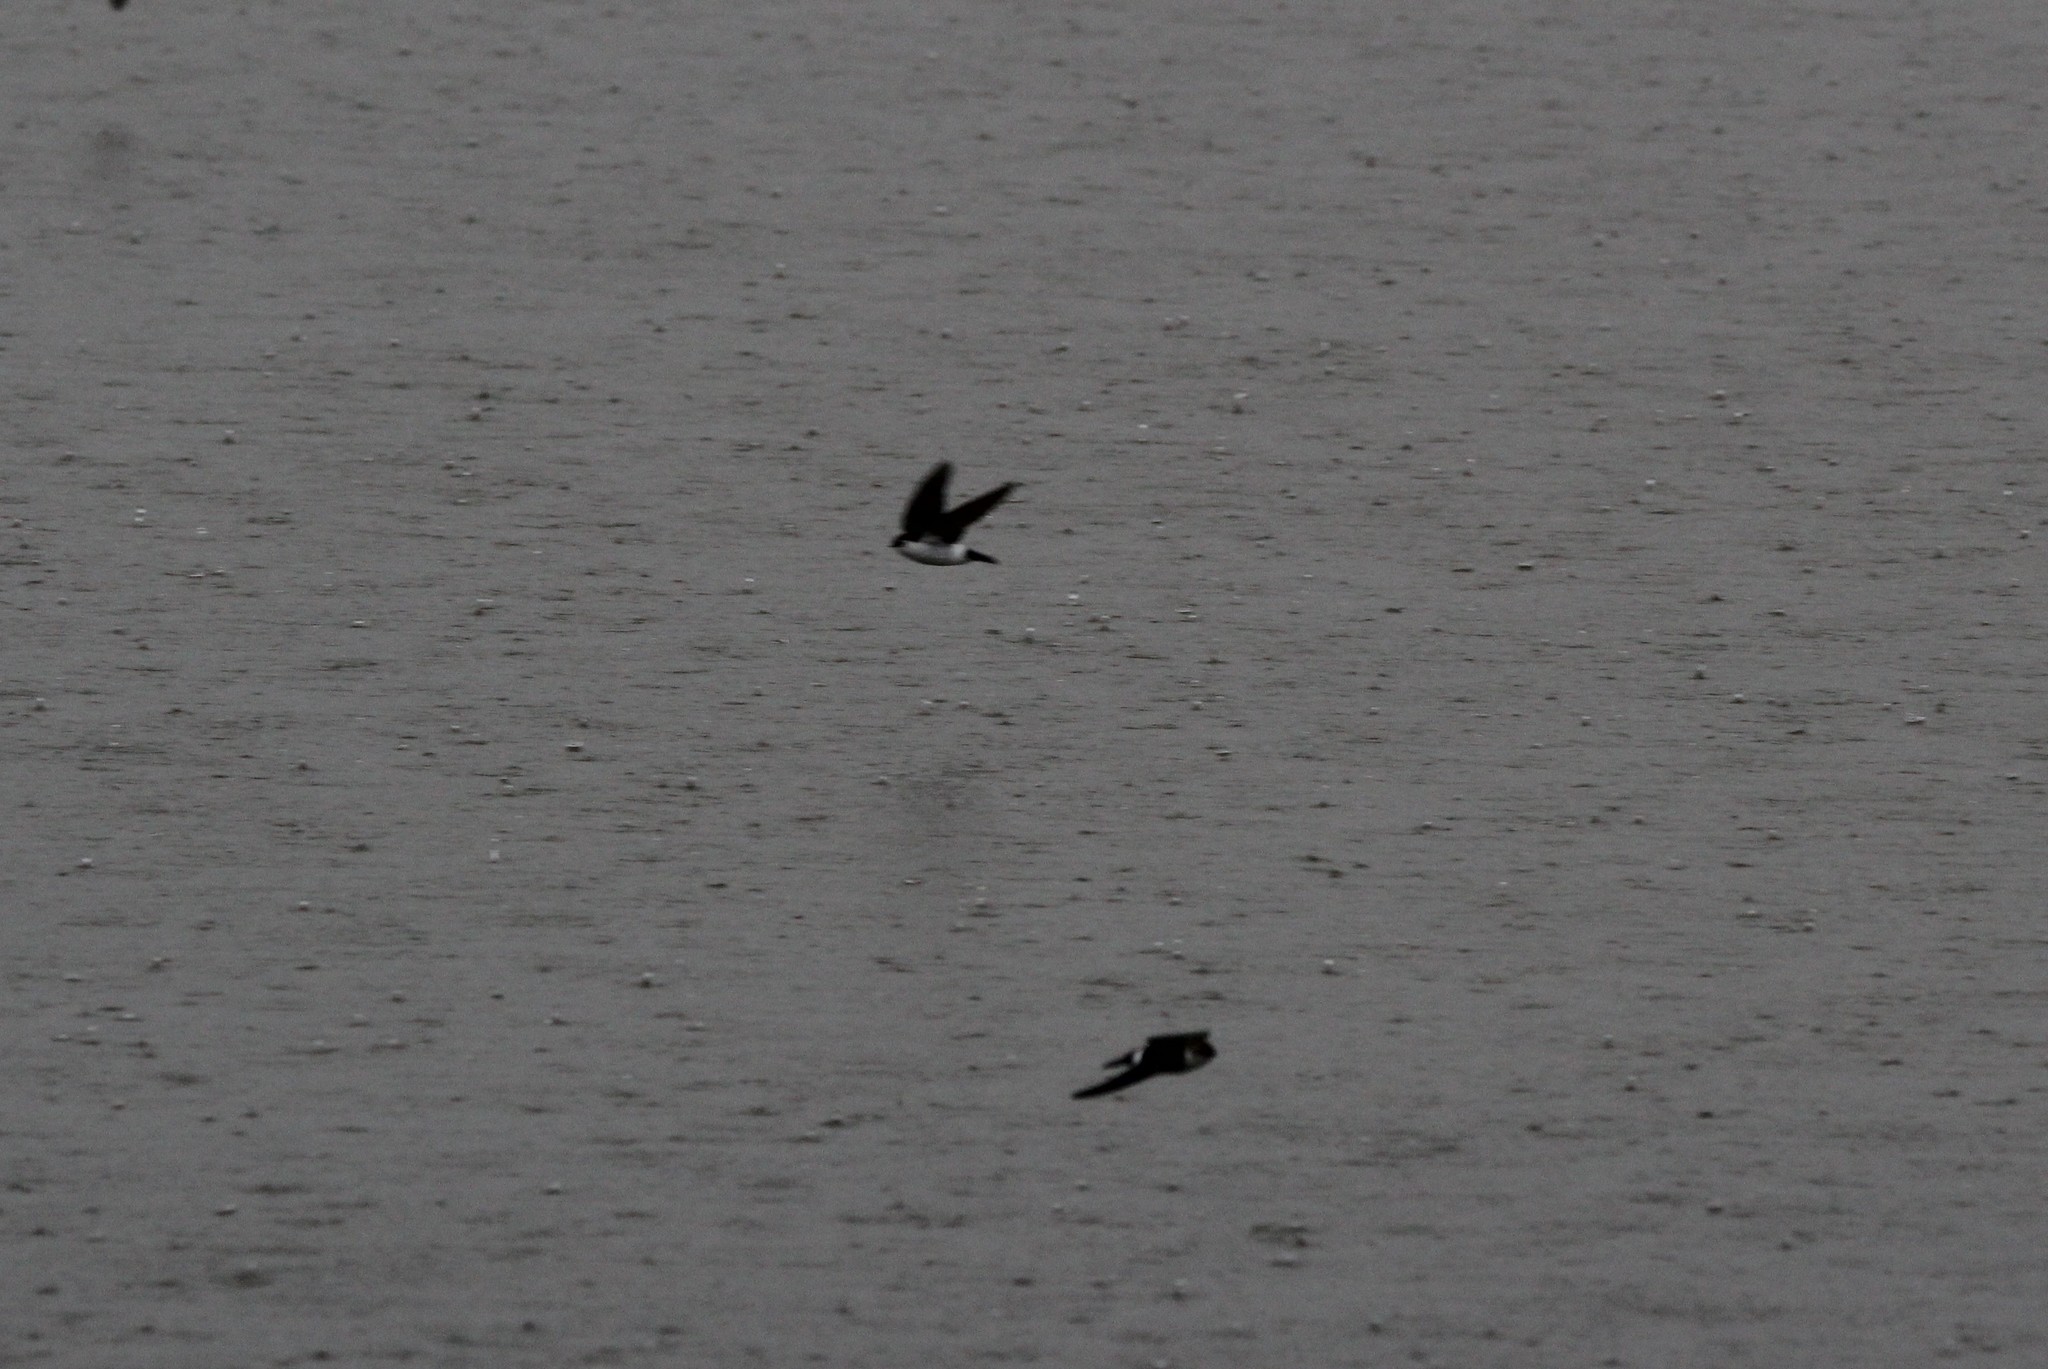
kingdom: Animalia
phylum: Chordata
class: Aves
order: Passeriformes
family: Hirundinidae
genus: Tachycineta
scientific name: Tachycineta thalassina
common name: Violet-green swallow
